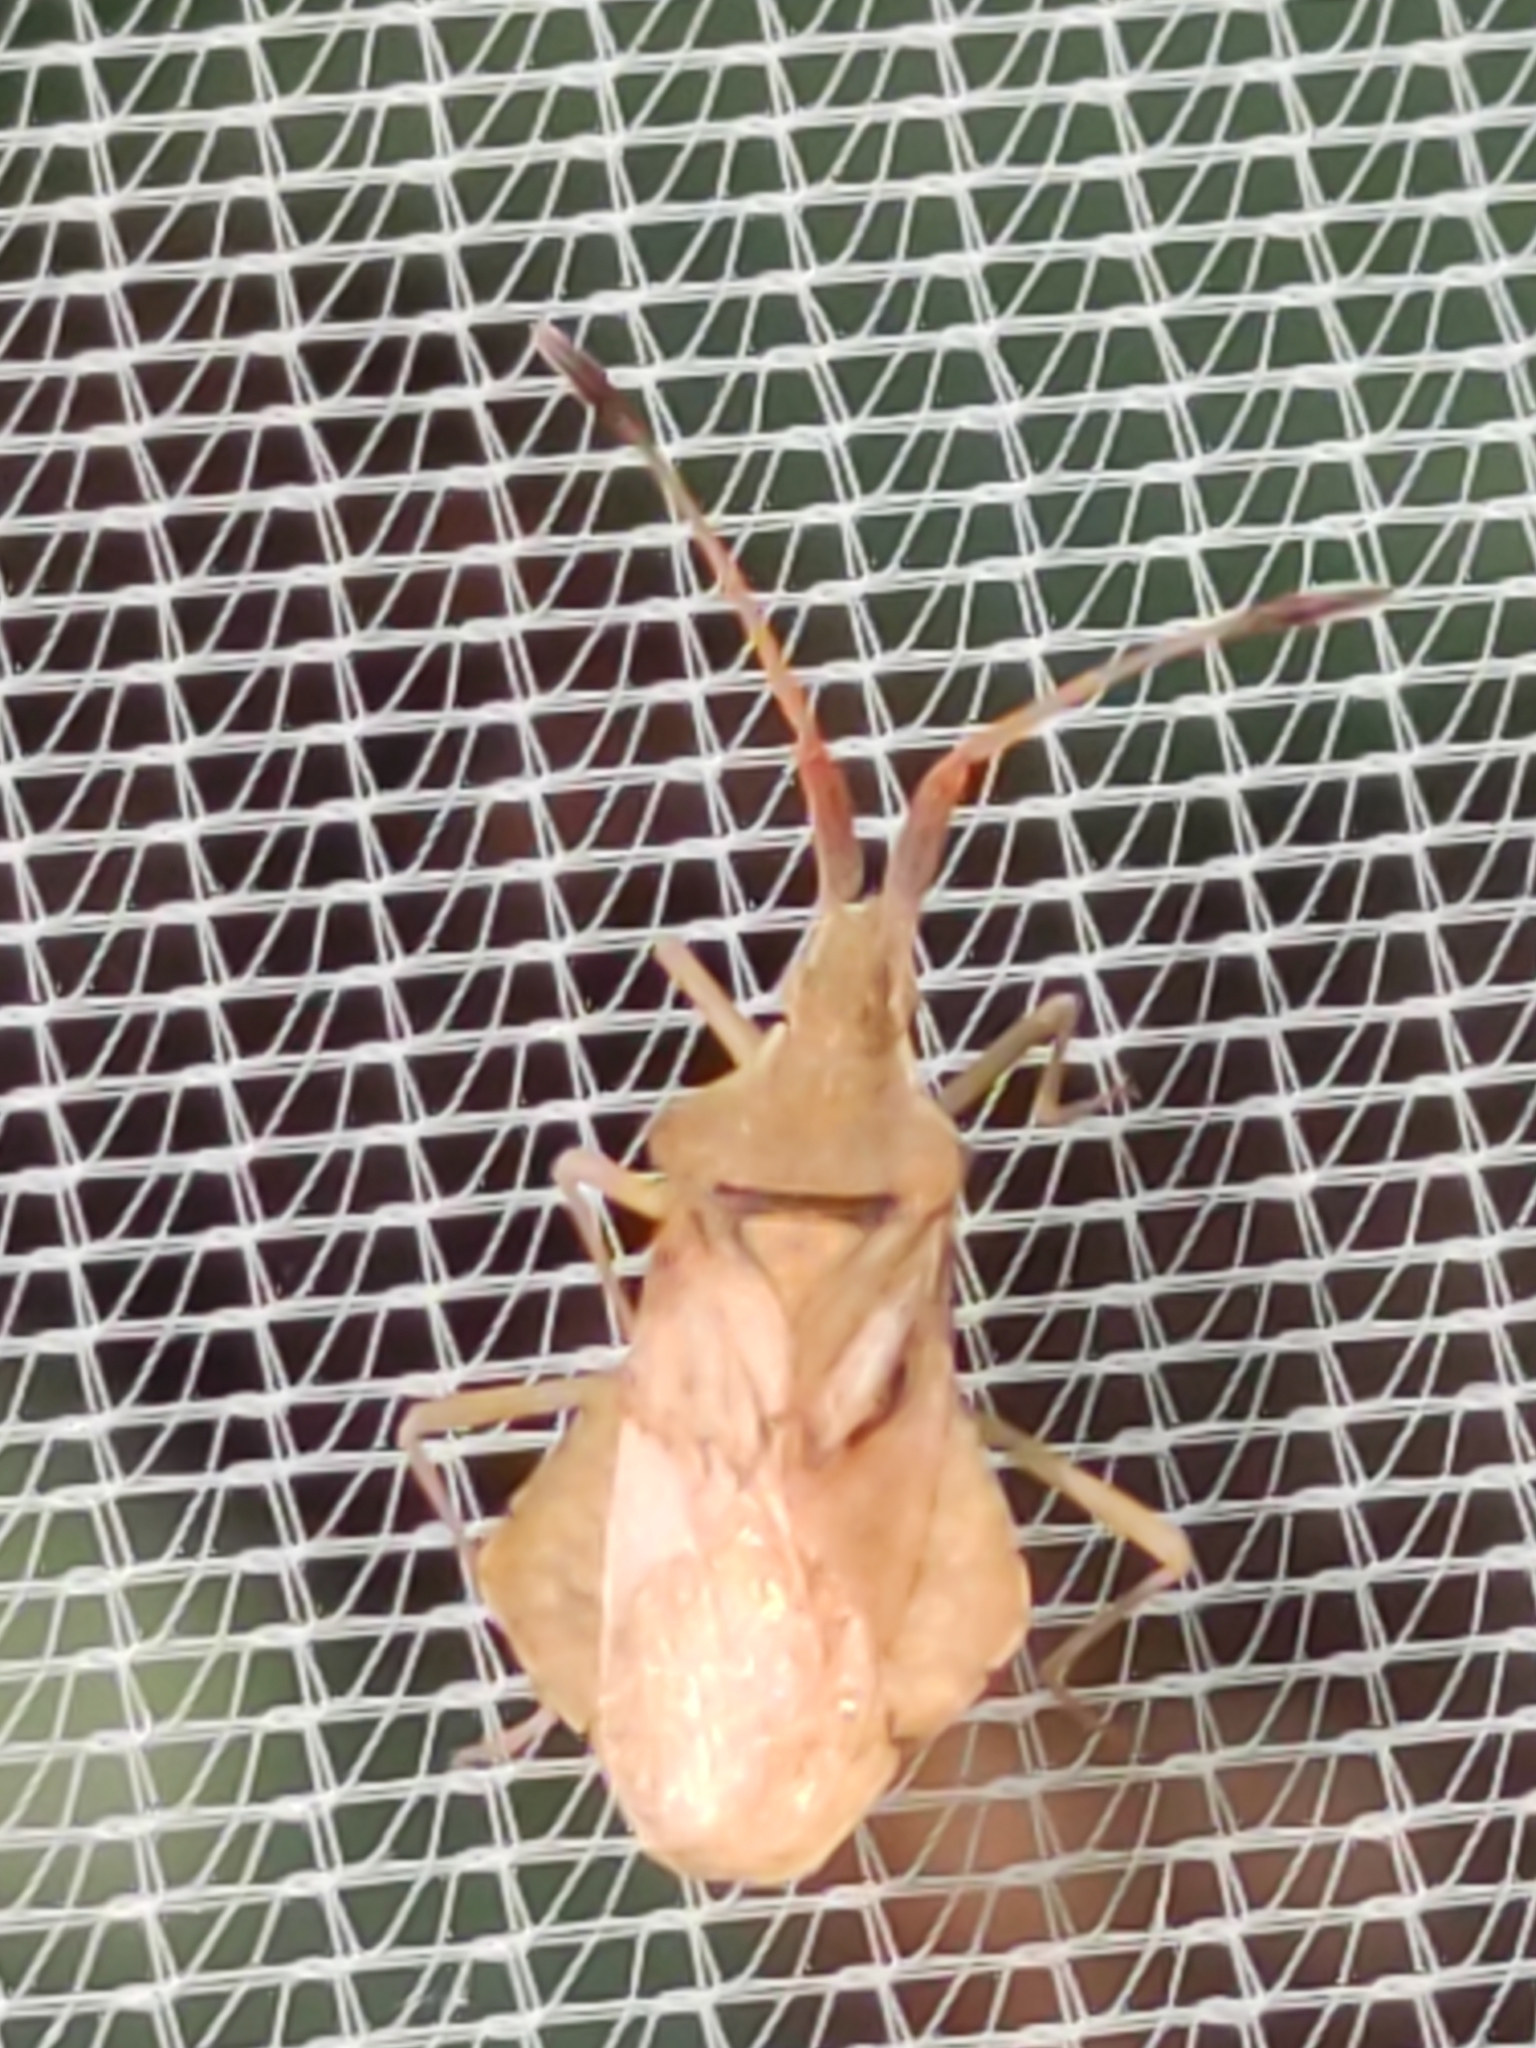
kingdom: Animalia
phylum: Arthropoda
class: Insecta
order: Hemiptera
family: Coreidae
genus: Syromastus
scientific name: Syromastus rhombeus
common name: Rhombic leatherbug
